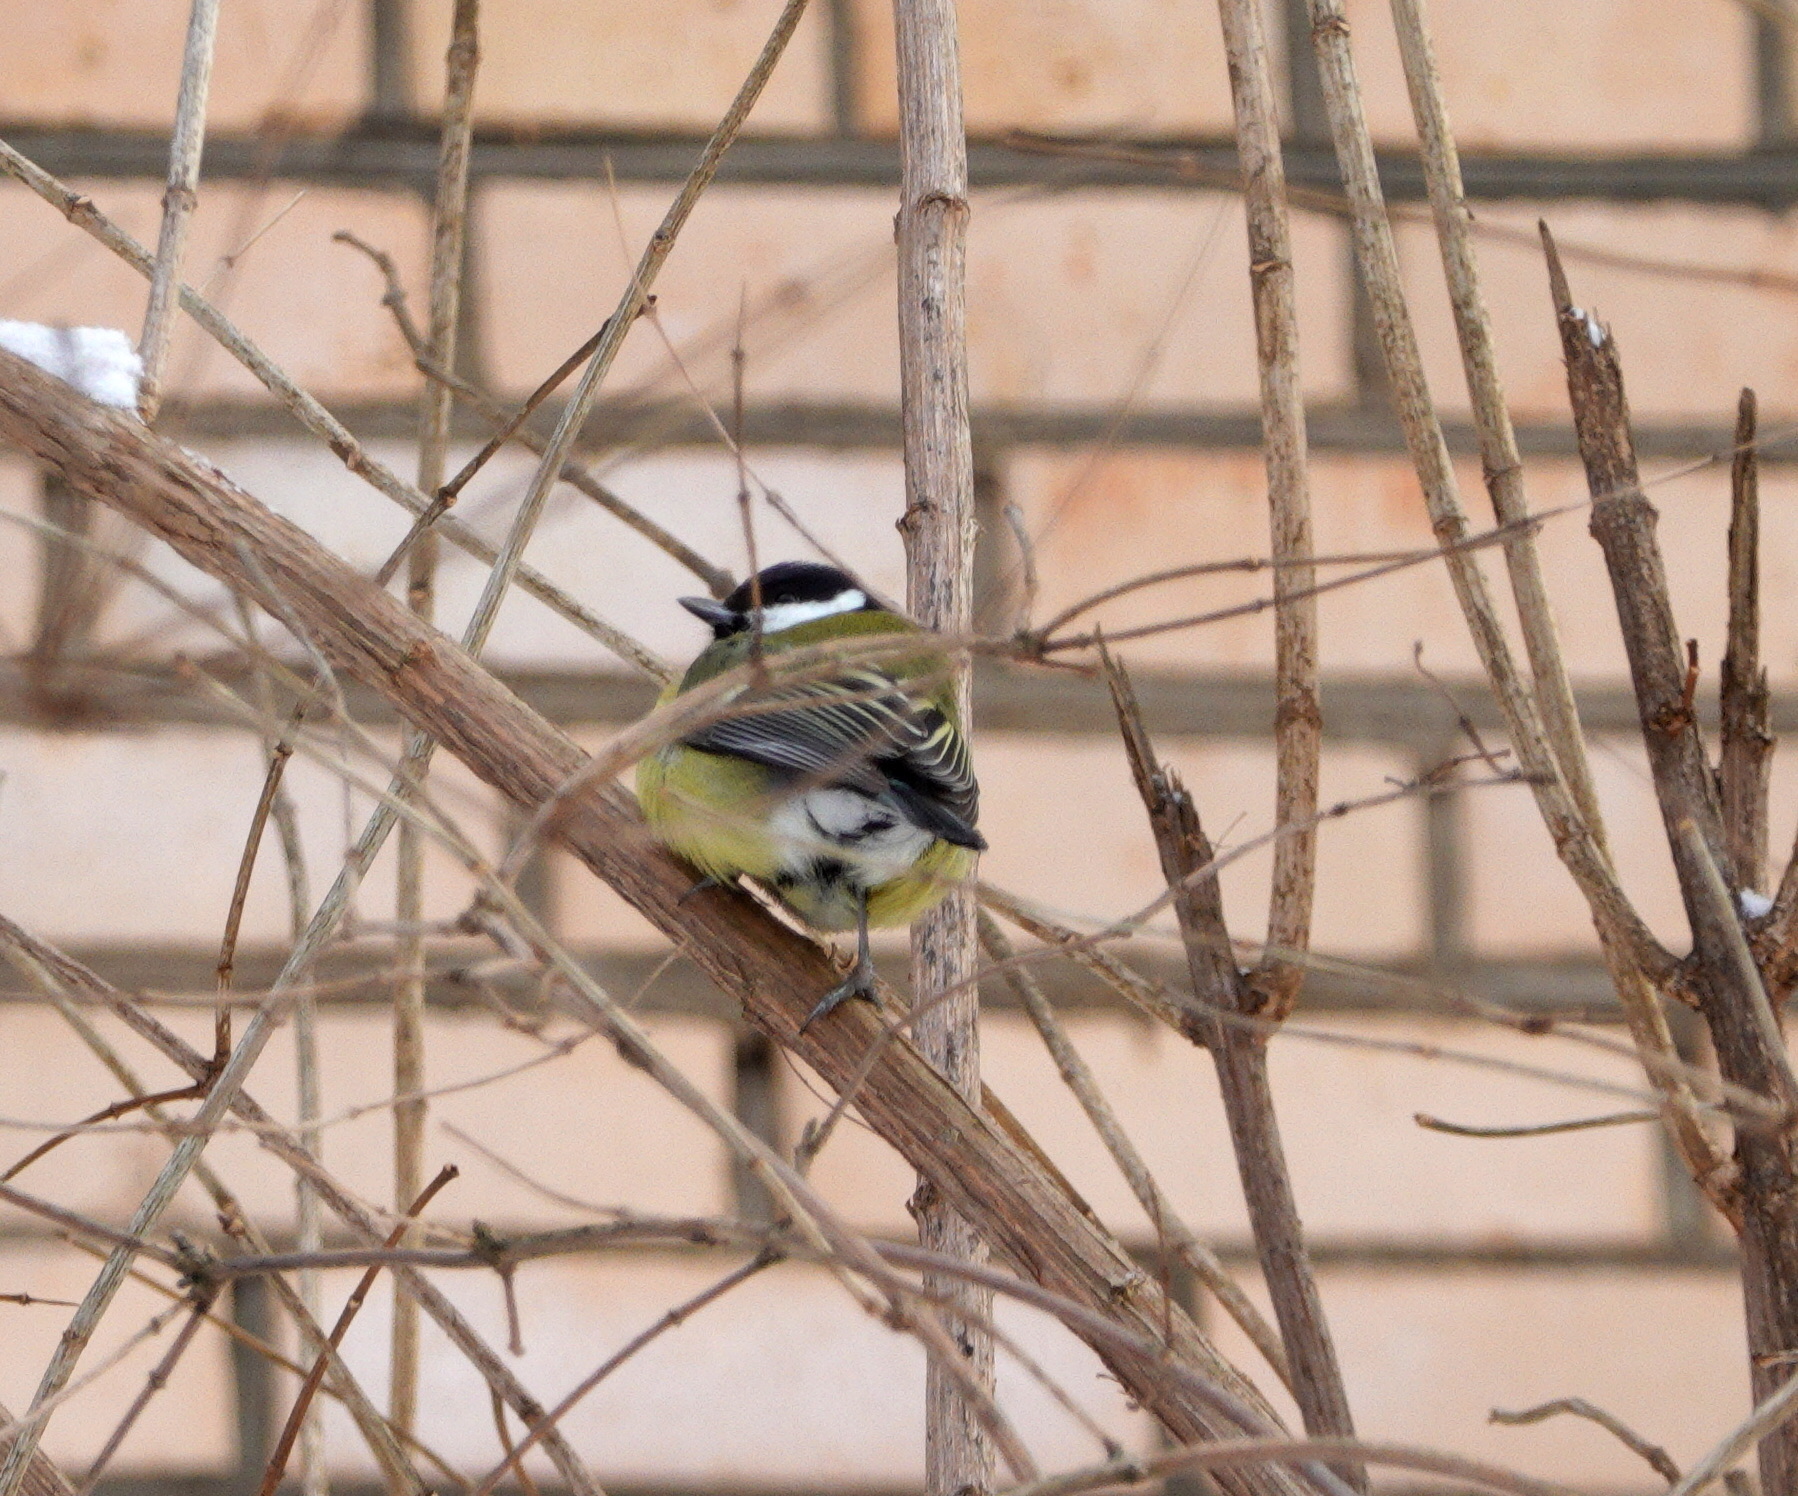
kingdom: Animalia
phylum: Chordata
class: Aves
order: Passeriformes
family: Paridae
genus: Parus
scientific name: Parus major
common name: Great tit
